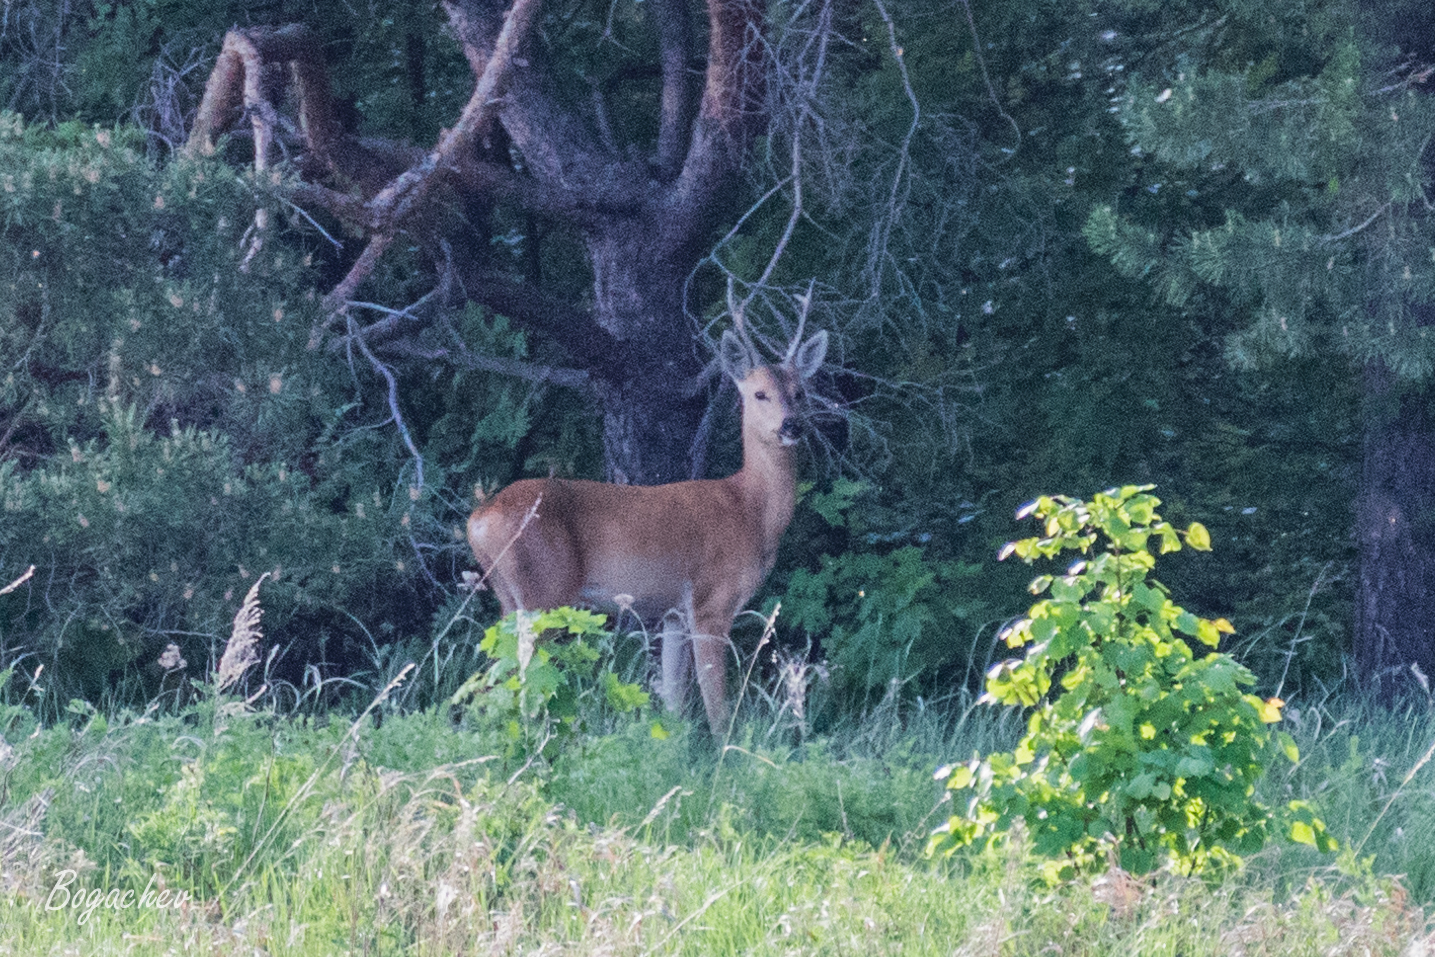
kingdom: Animalia
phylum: Chordata
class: Mammalia
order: Artiodactyla
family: Cervidae
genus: Capreolus
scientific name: Capreolus pygargus
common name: Siberian roe
